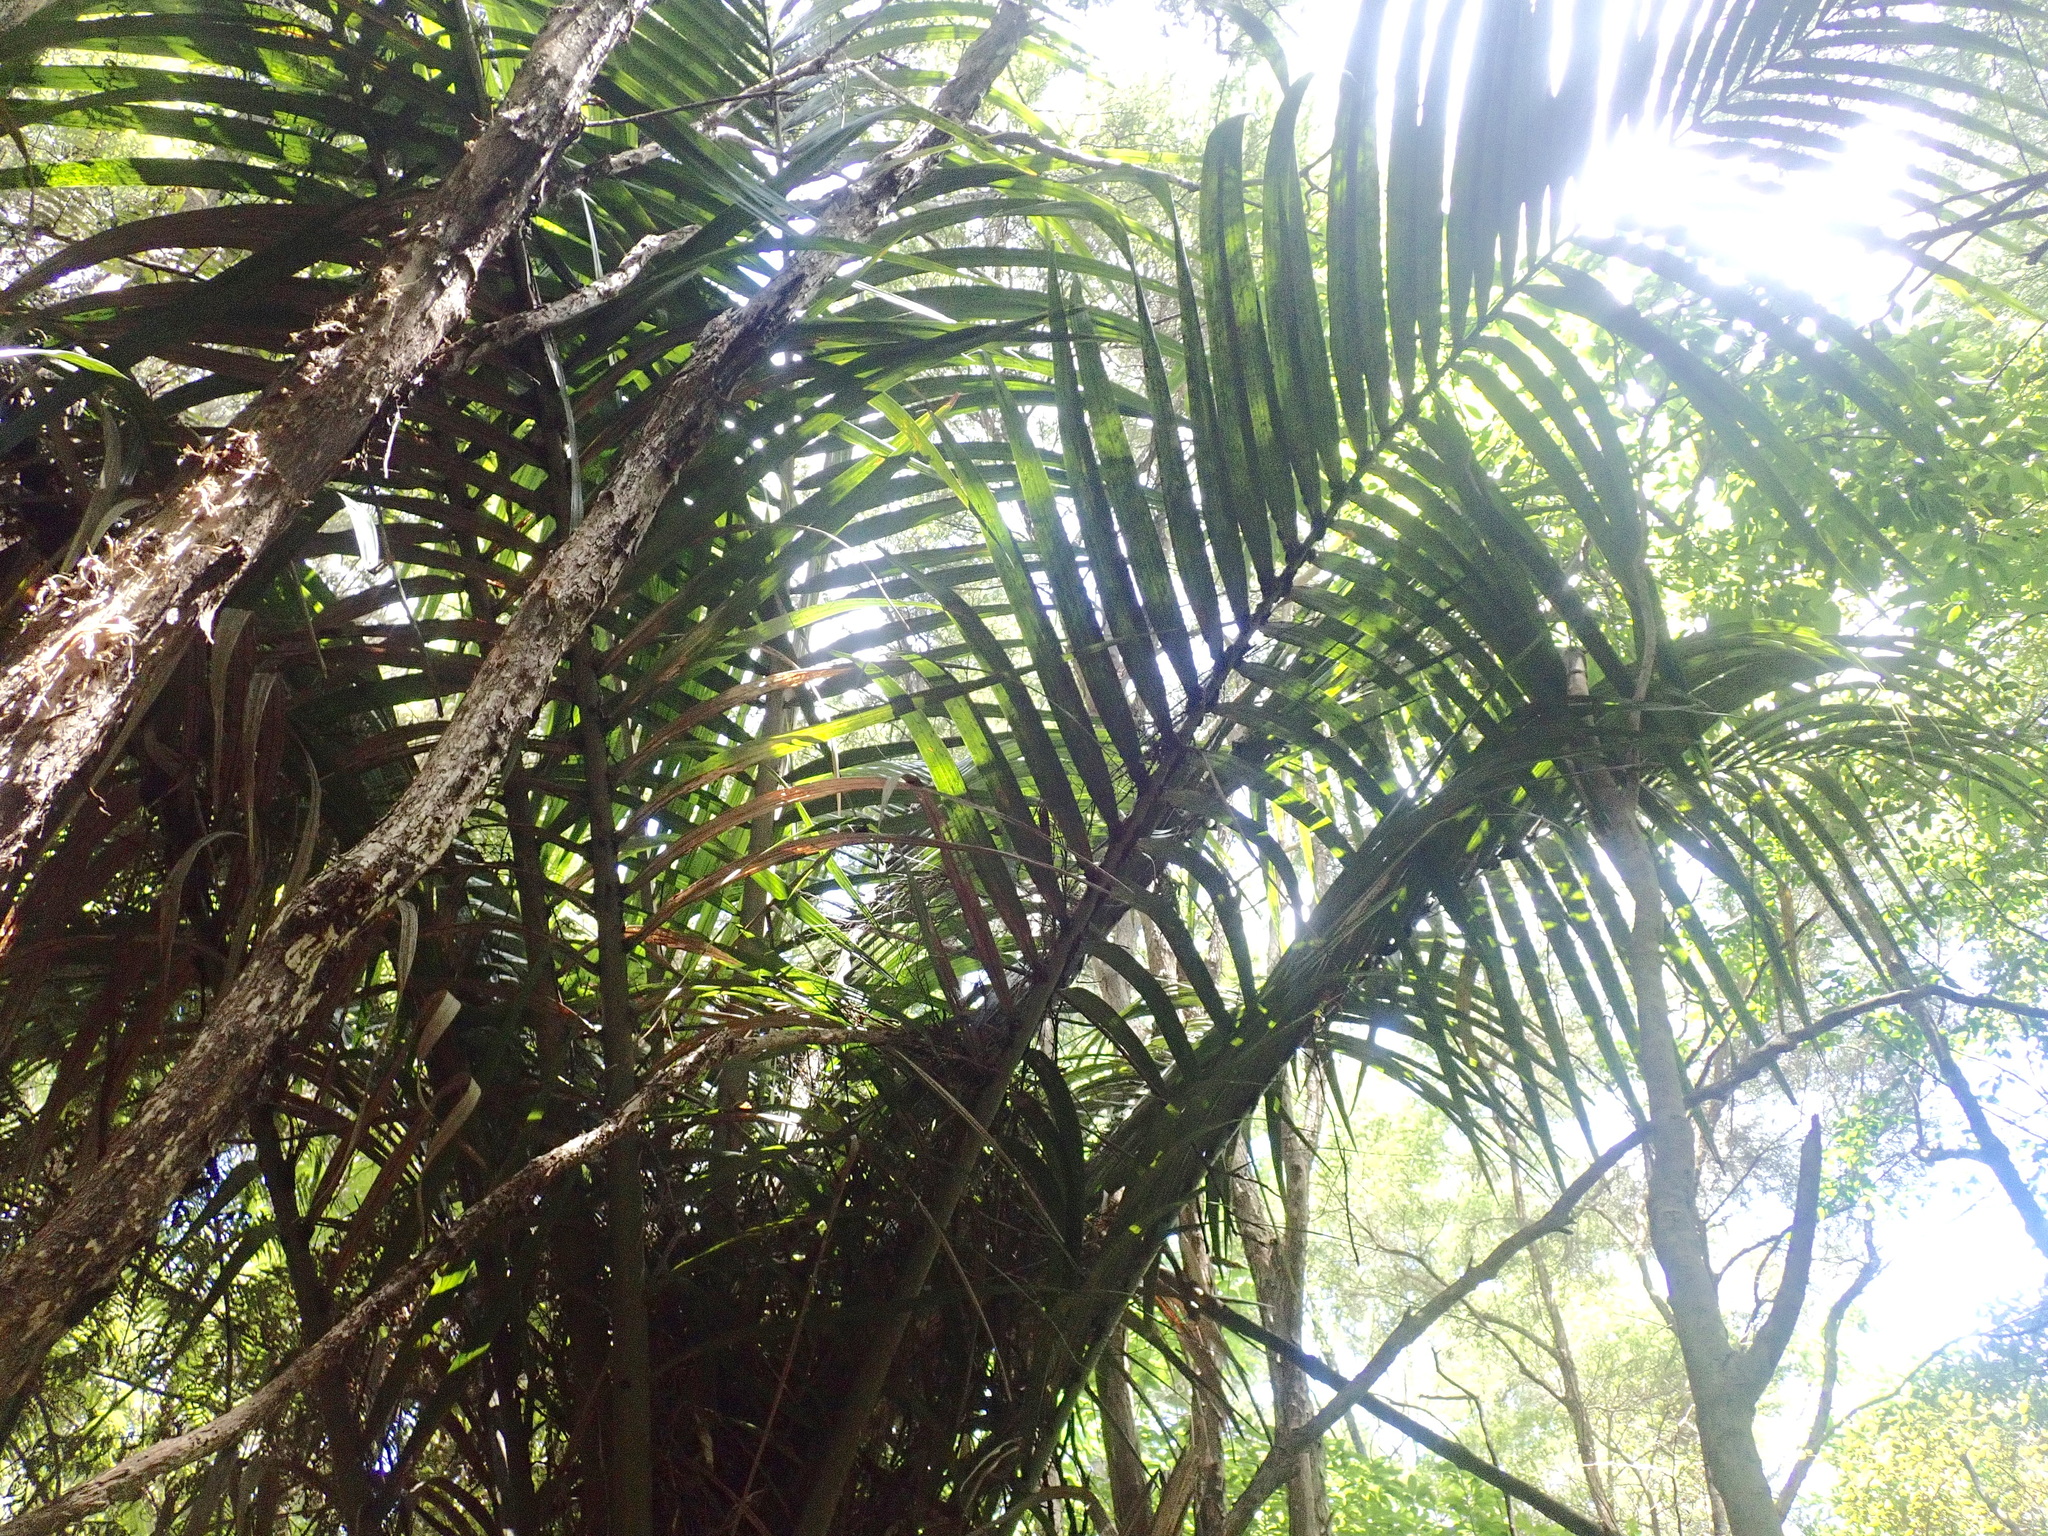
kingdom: Plantae
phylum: Tracheophyta
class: Liliopsida
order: Arecales
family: Arecaceae
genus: Rhopalostylis
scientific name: Rhopalostylis sapida
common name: Feather-duster palm
